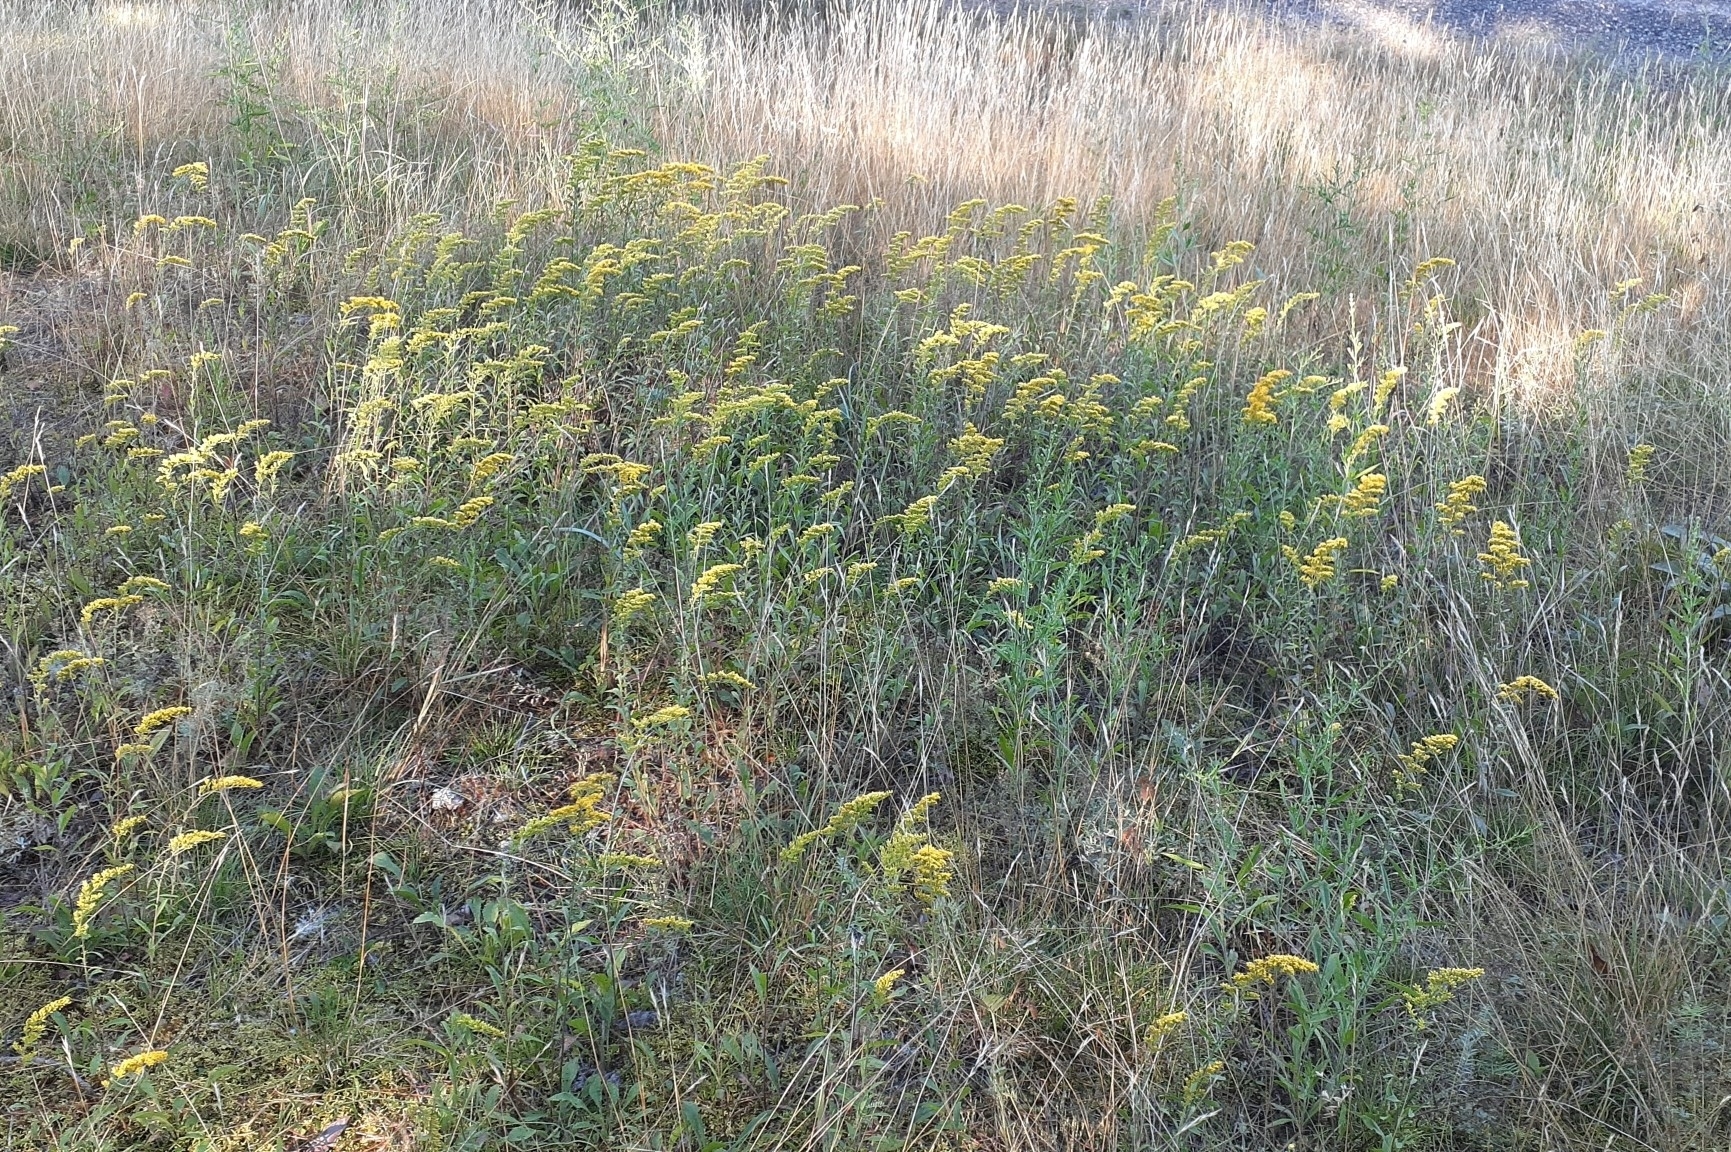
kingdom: Plantae
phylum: Tracheophyta
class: Magnoliopsida
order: Asterales
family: Asteraceae
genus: Solidago
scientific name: Solidago nemoralis
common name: Grey goldenrod
